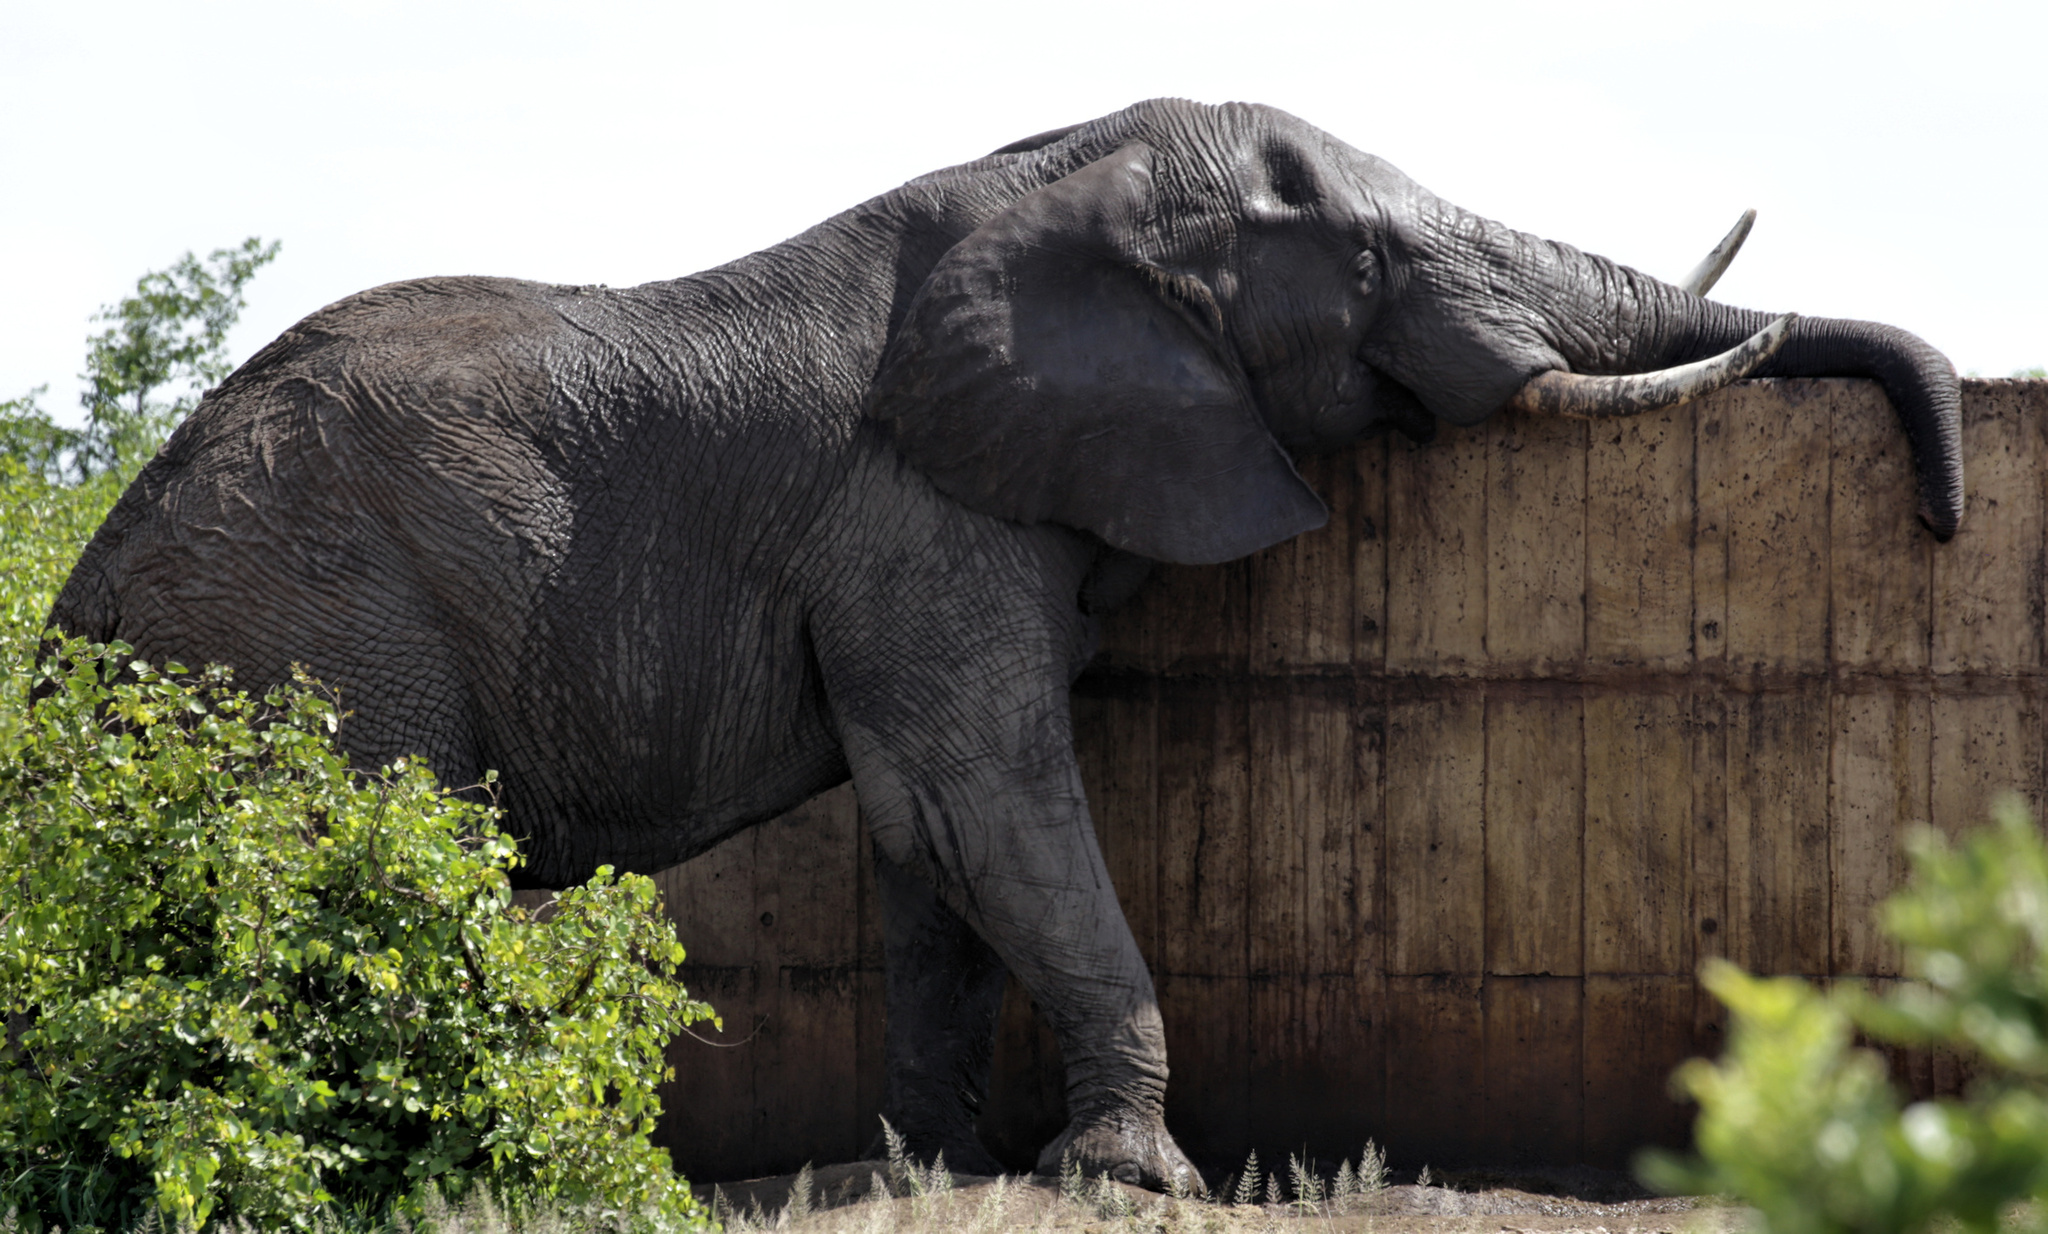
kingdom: Animalia
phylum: Chordata
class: Mammalia
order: Proboscidea
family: Elephantidae
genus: Loxodonta
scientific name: Loxodonta africana
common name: African elephant
